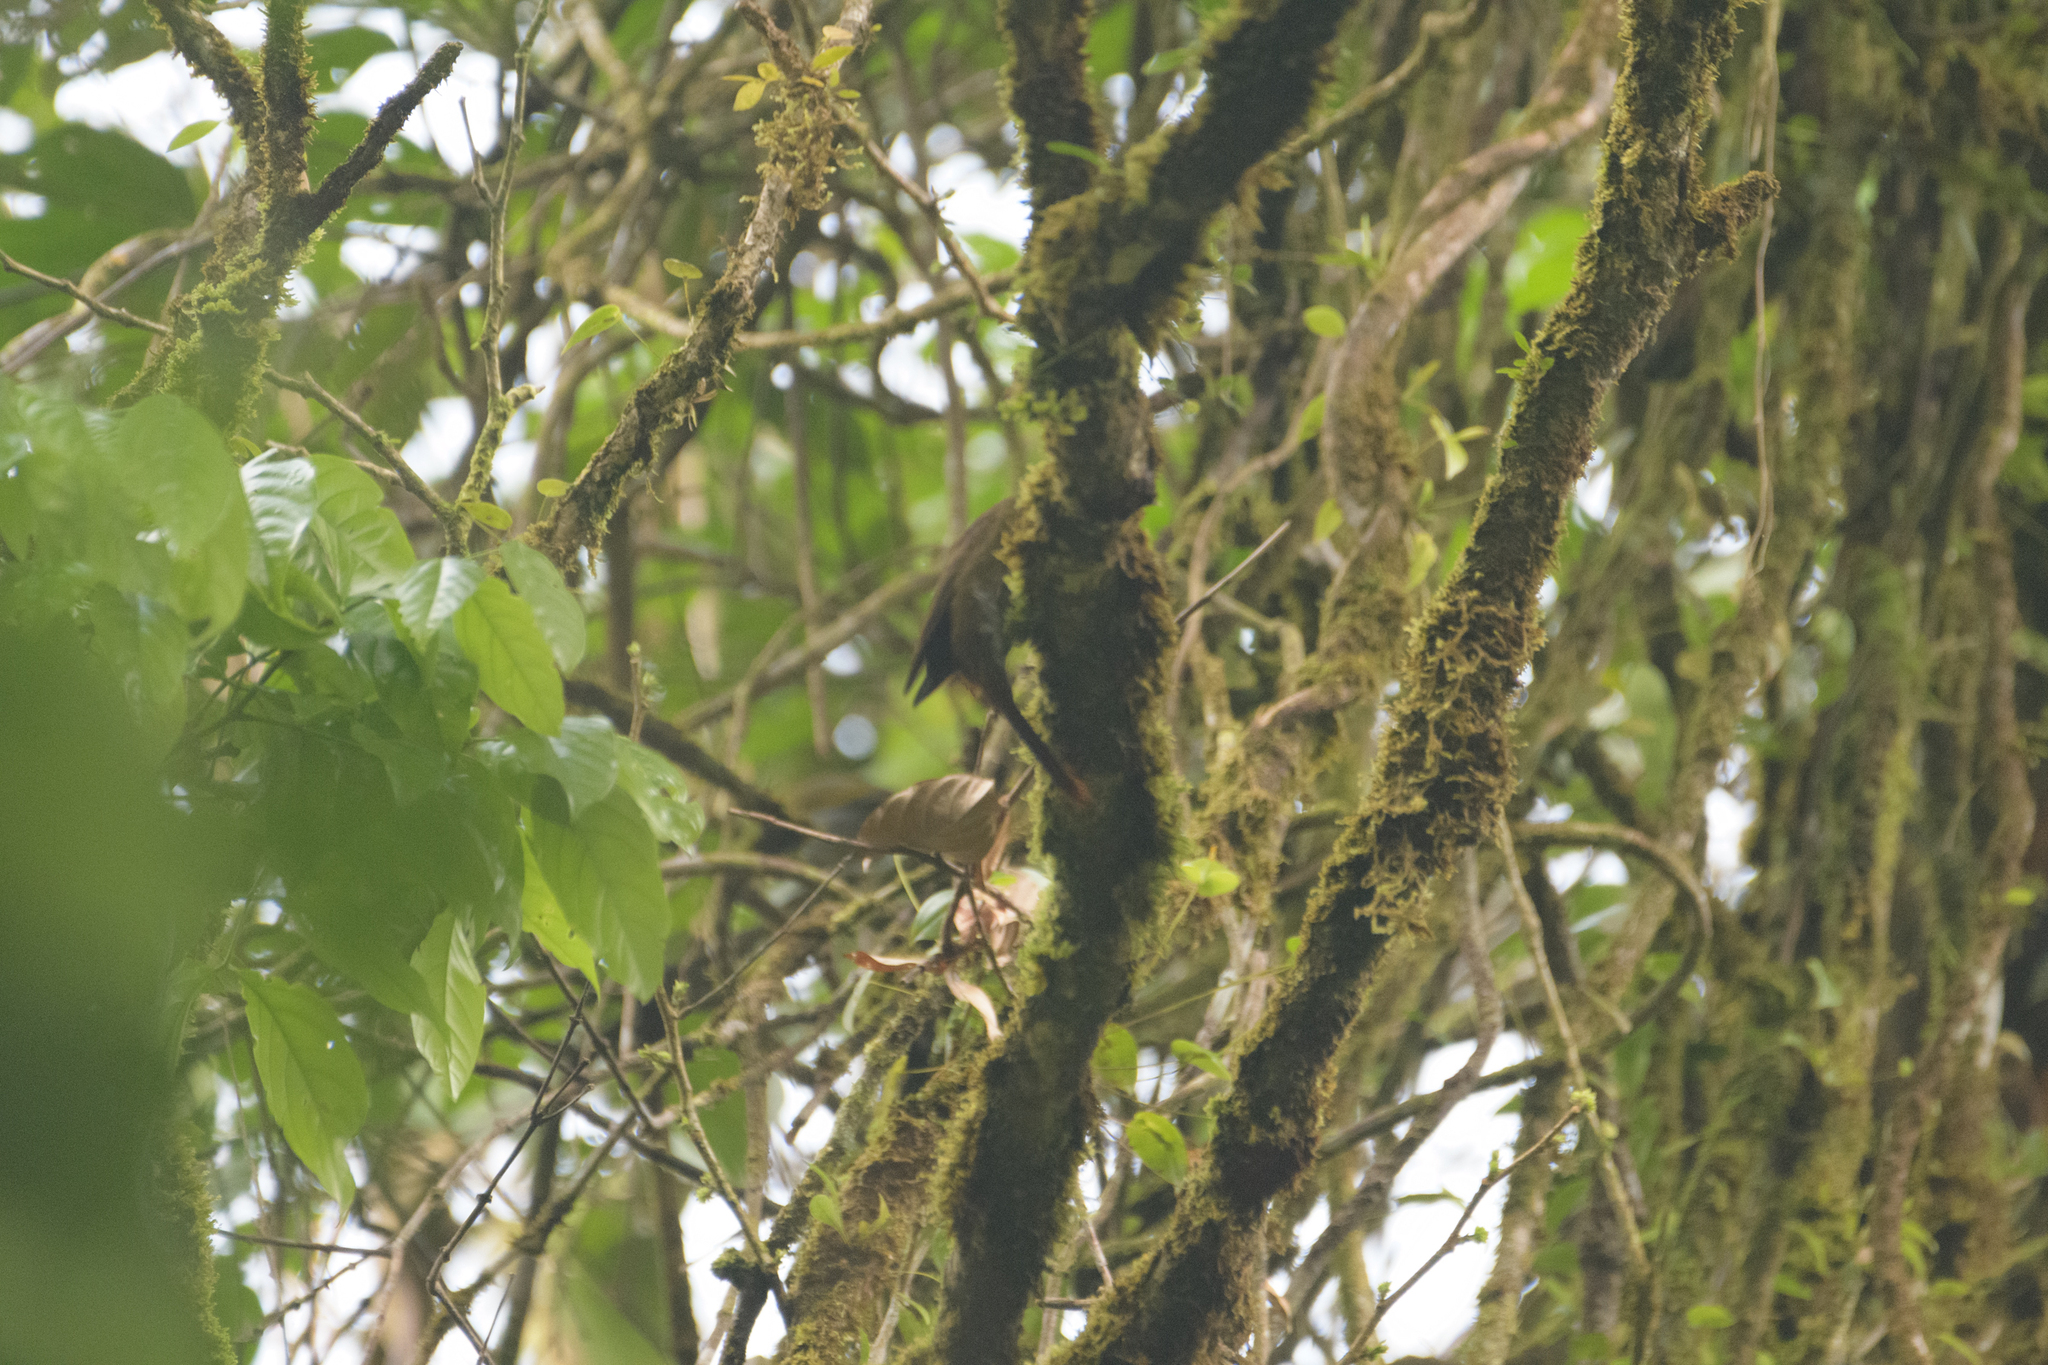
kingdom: Animalia
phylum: Chordata
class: Aves
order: Passeriformes
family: Furnariidae
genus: Xiphorhynchus
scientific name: Xiphorhynchus erythropygius
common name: Spotted woodcreeper
